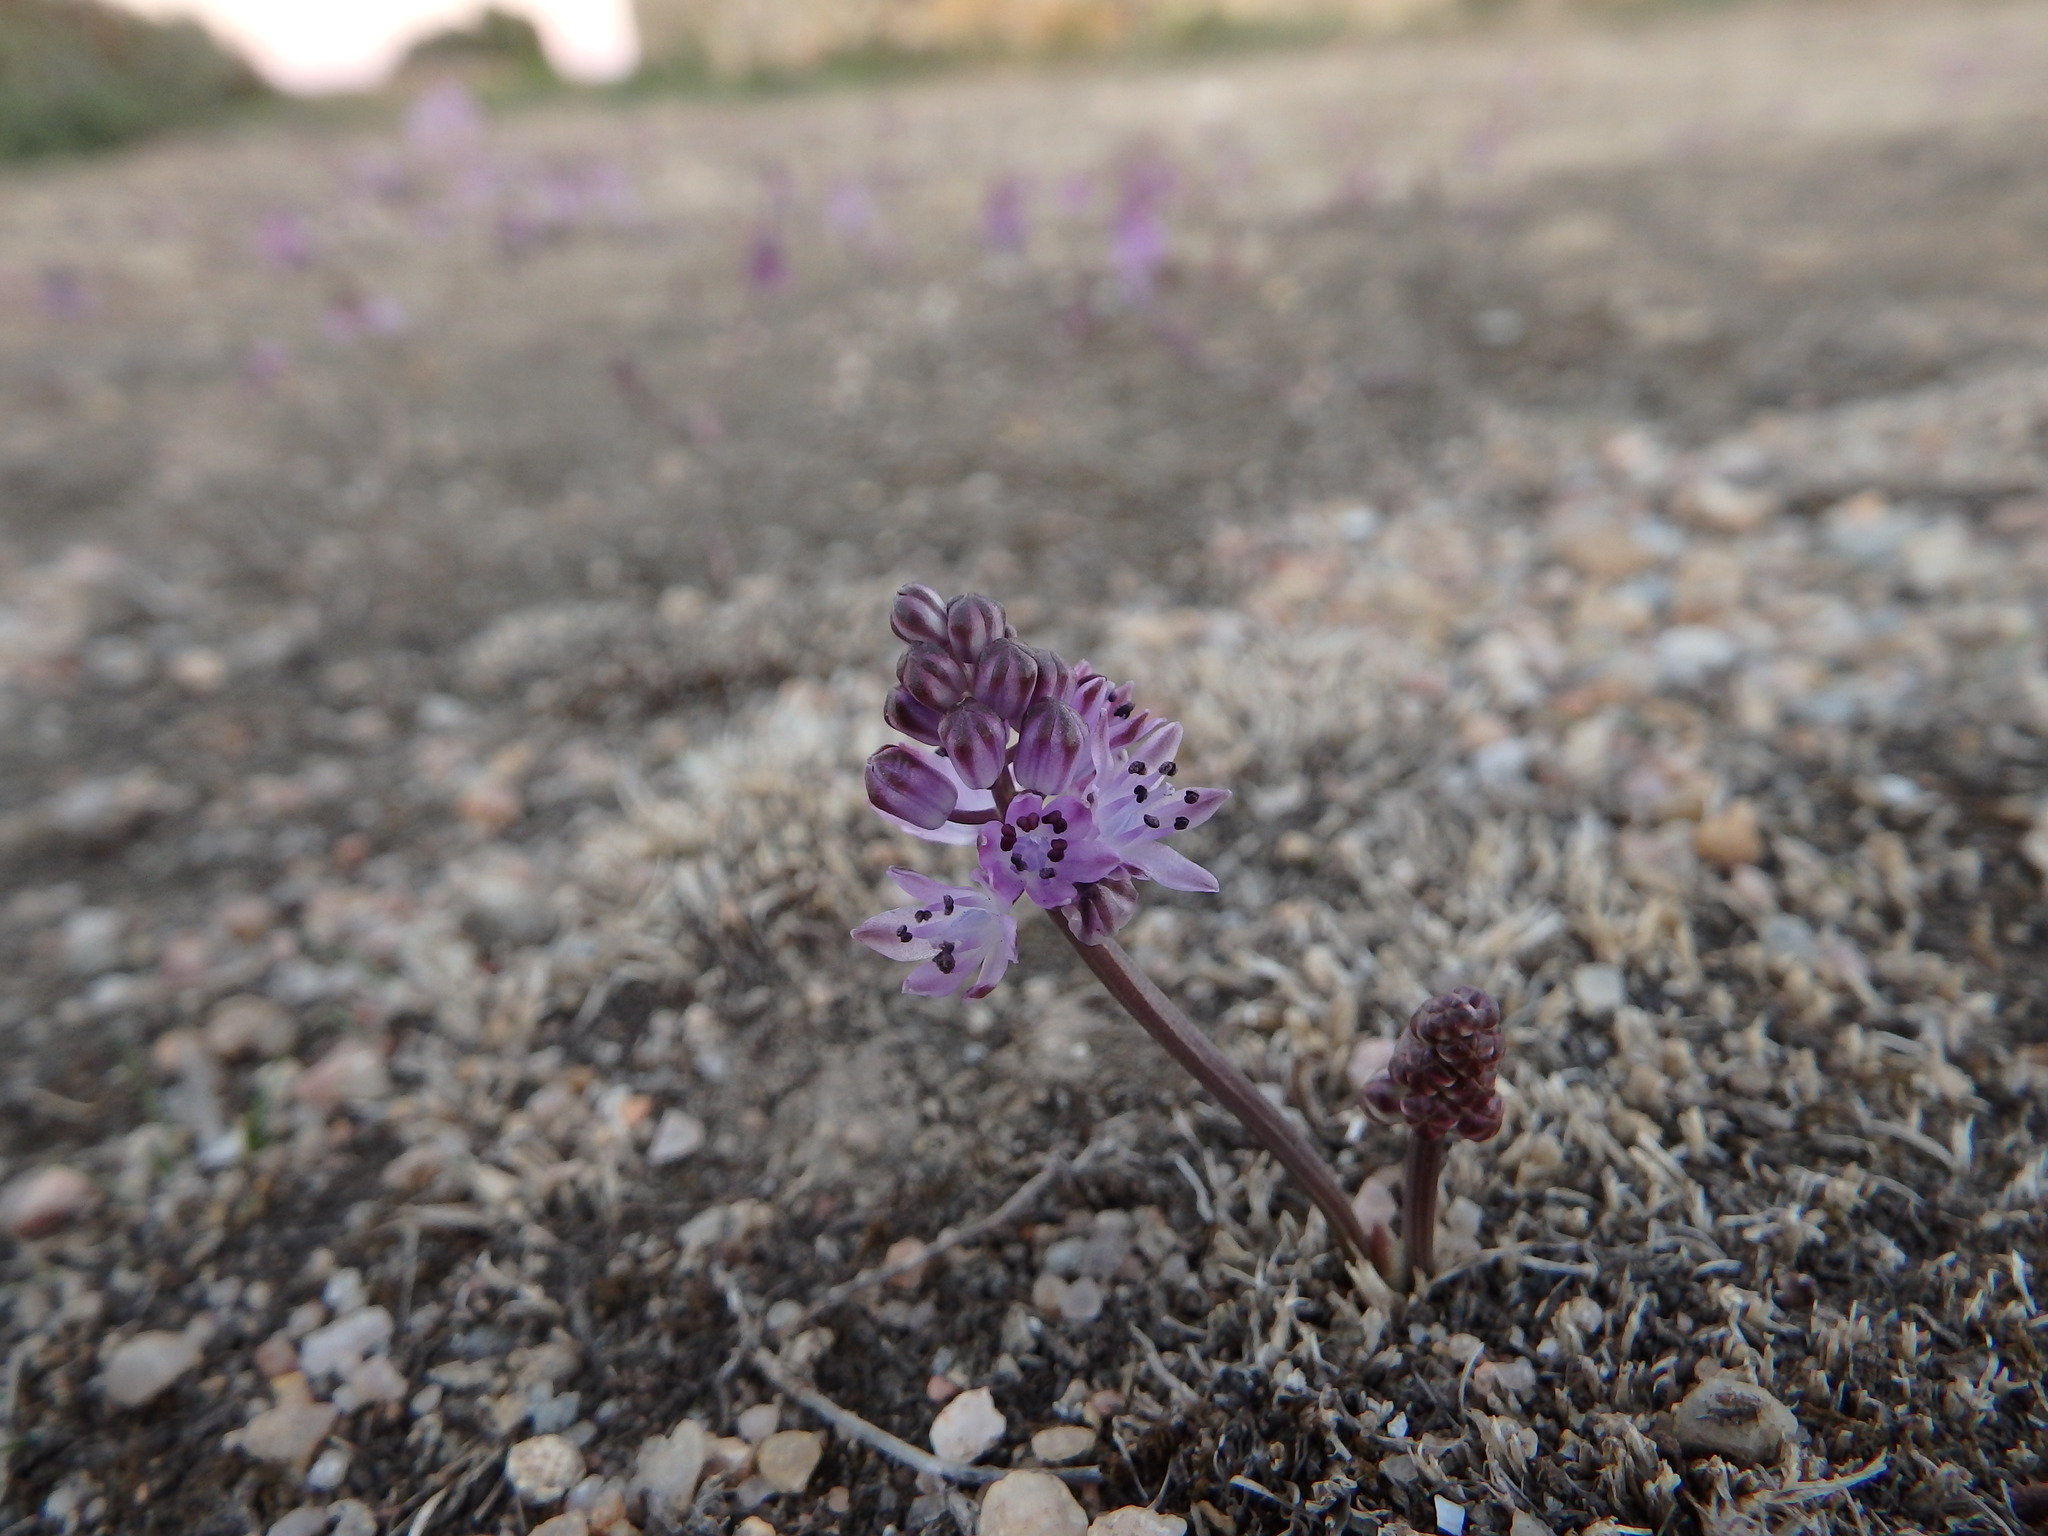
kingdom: Plantae
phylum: Tracheophyta
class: Liliopsida
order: Asparagales
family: Asparagaceae
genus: Prospero
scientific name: Prospero autumnale
